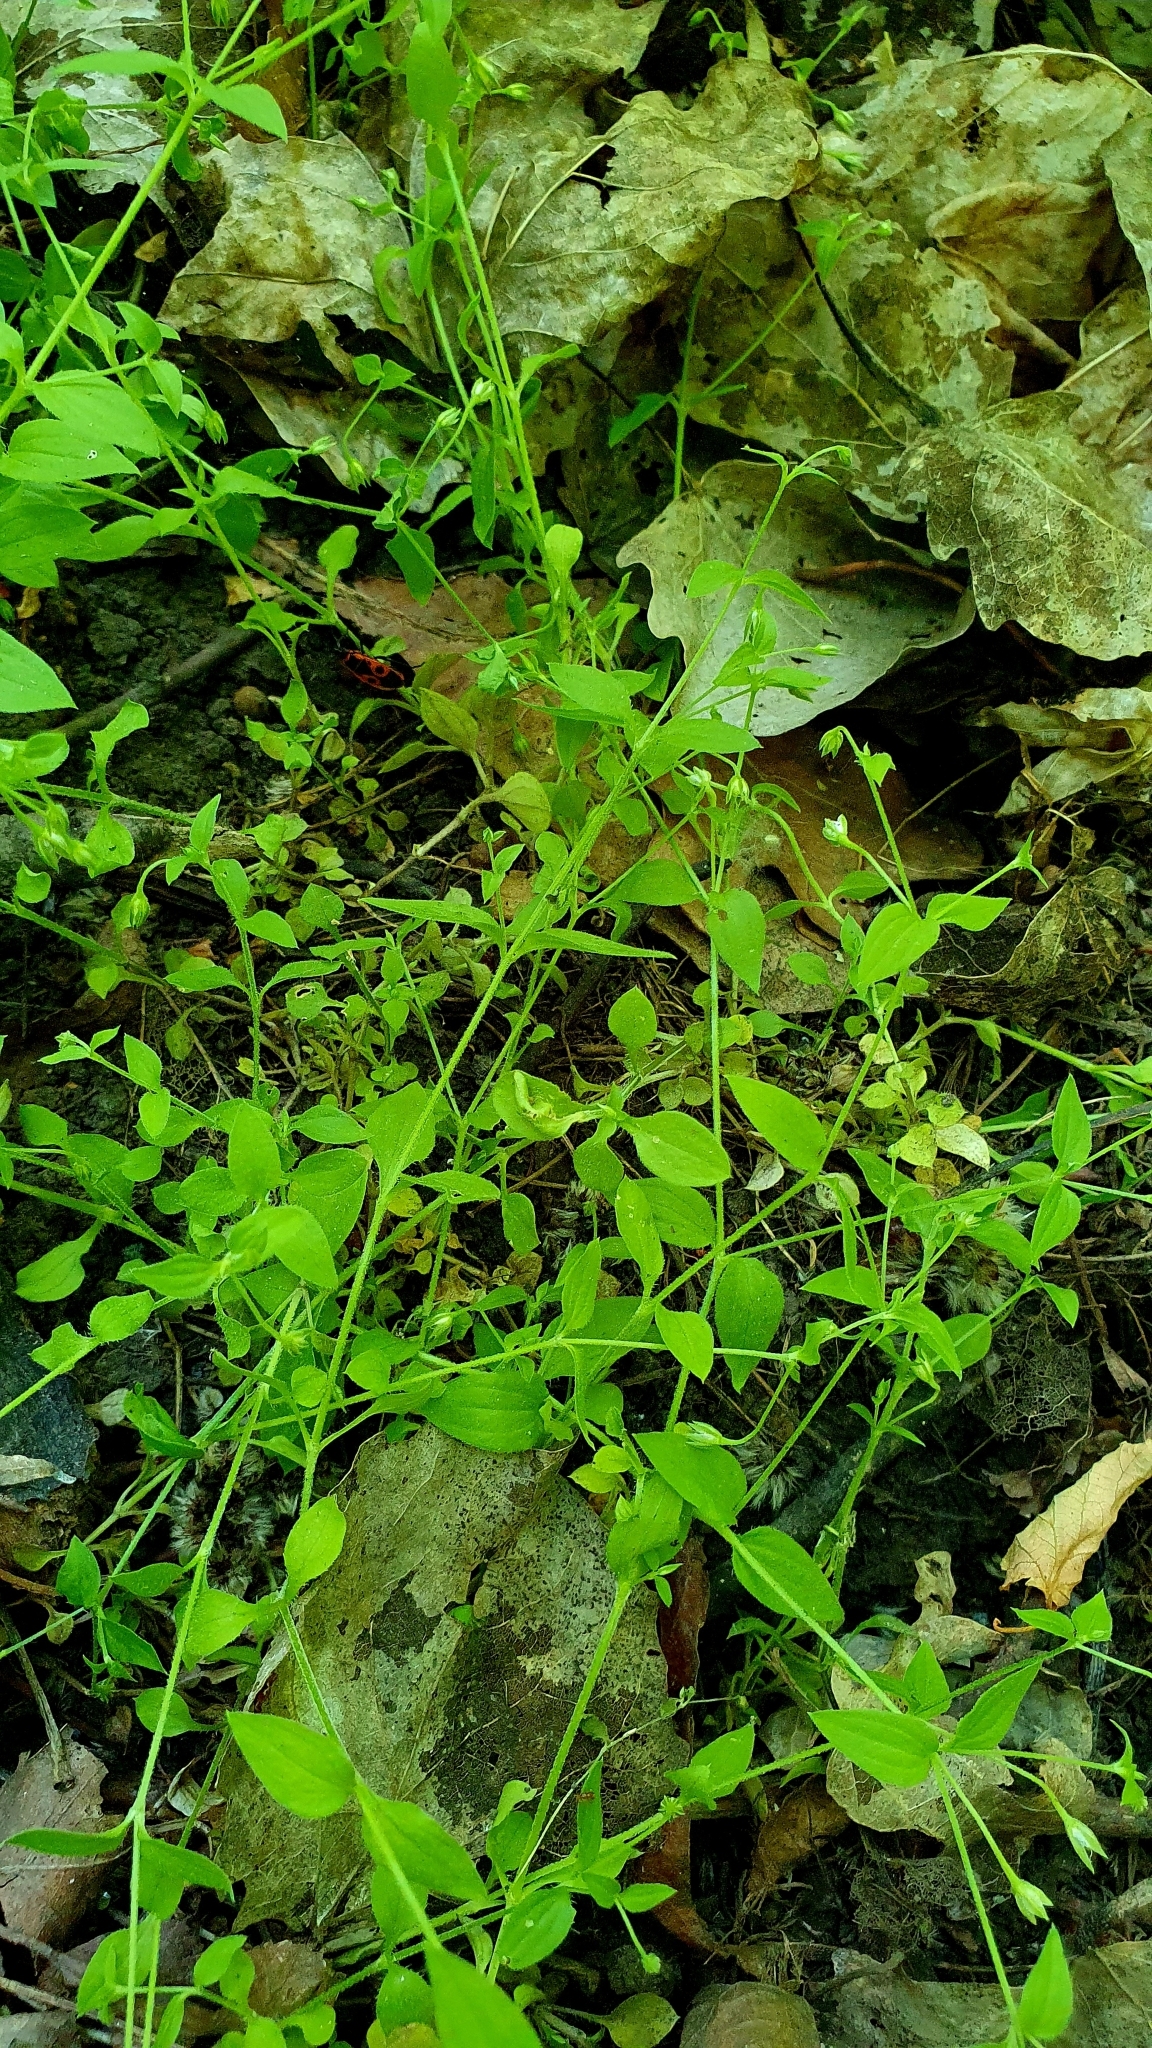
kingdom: Plantae
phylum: Tracheophyta
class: Magnoliopsida
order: Caryophyllales
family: Caryophyllaceae
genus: Moehringia
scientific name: Moehringia trinervia
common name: Three-nerved sandwort
